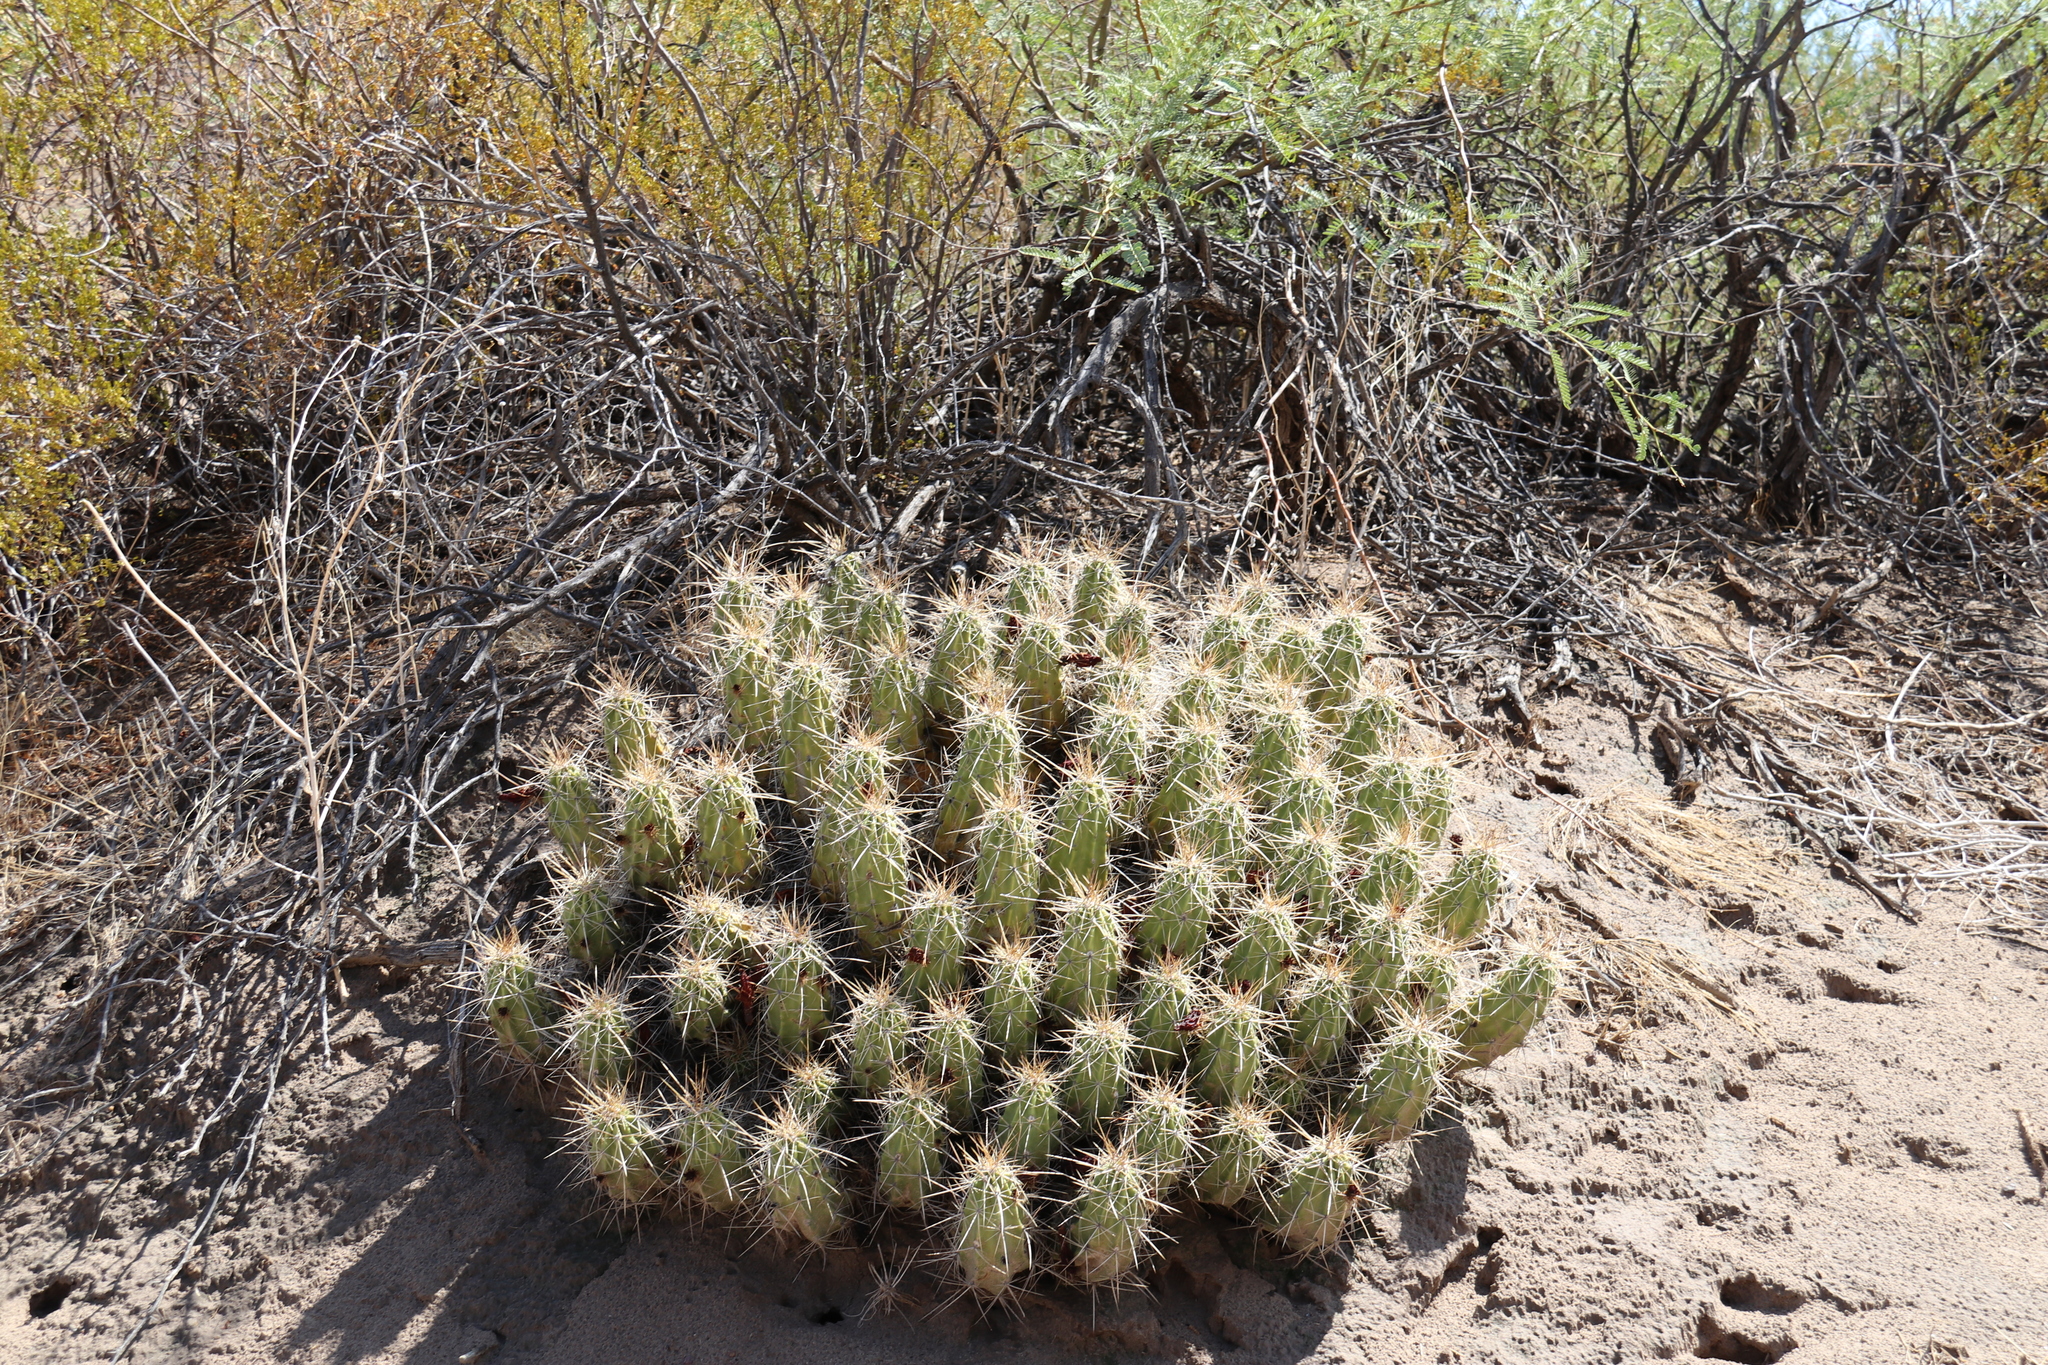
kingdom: Plantae
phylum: Tracheophyta
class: Magnoliopsida
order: Caryophyllales
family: Cactaceae
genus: Echinocereus
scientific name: Echinocereus enneacanthus
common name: Pitaya
